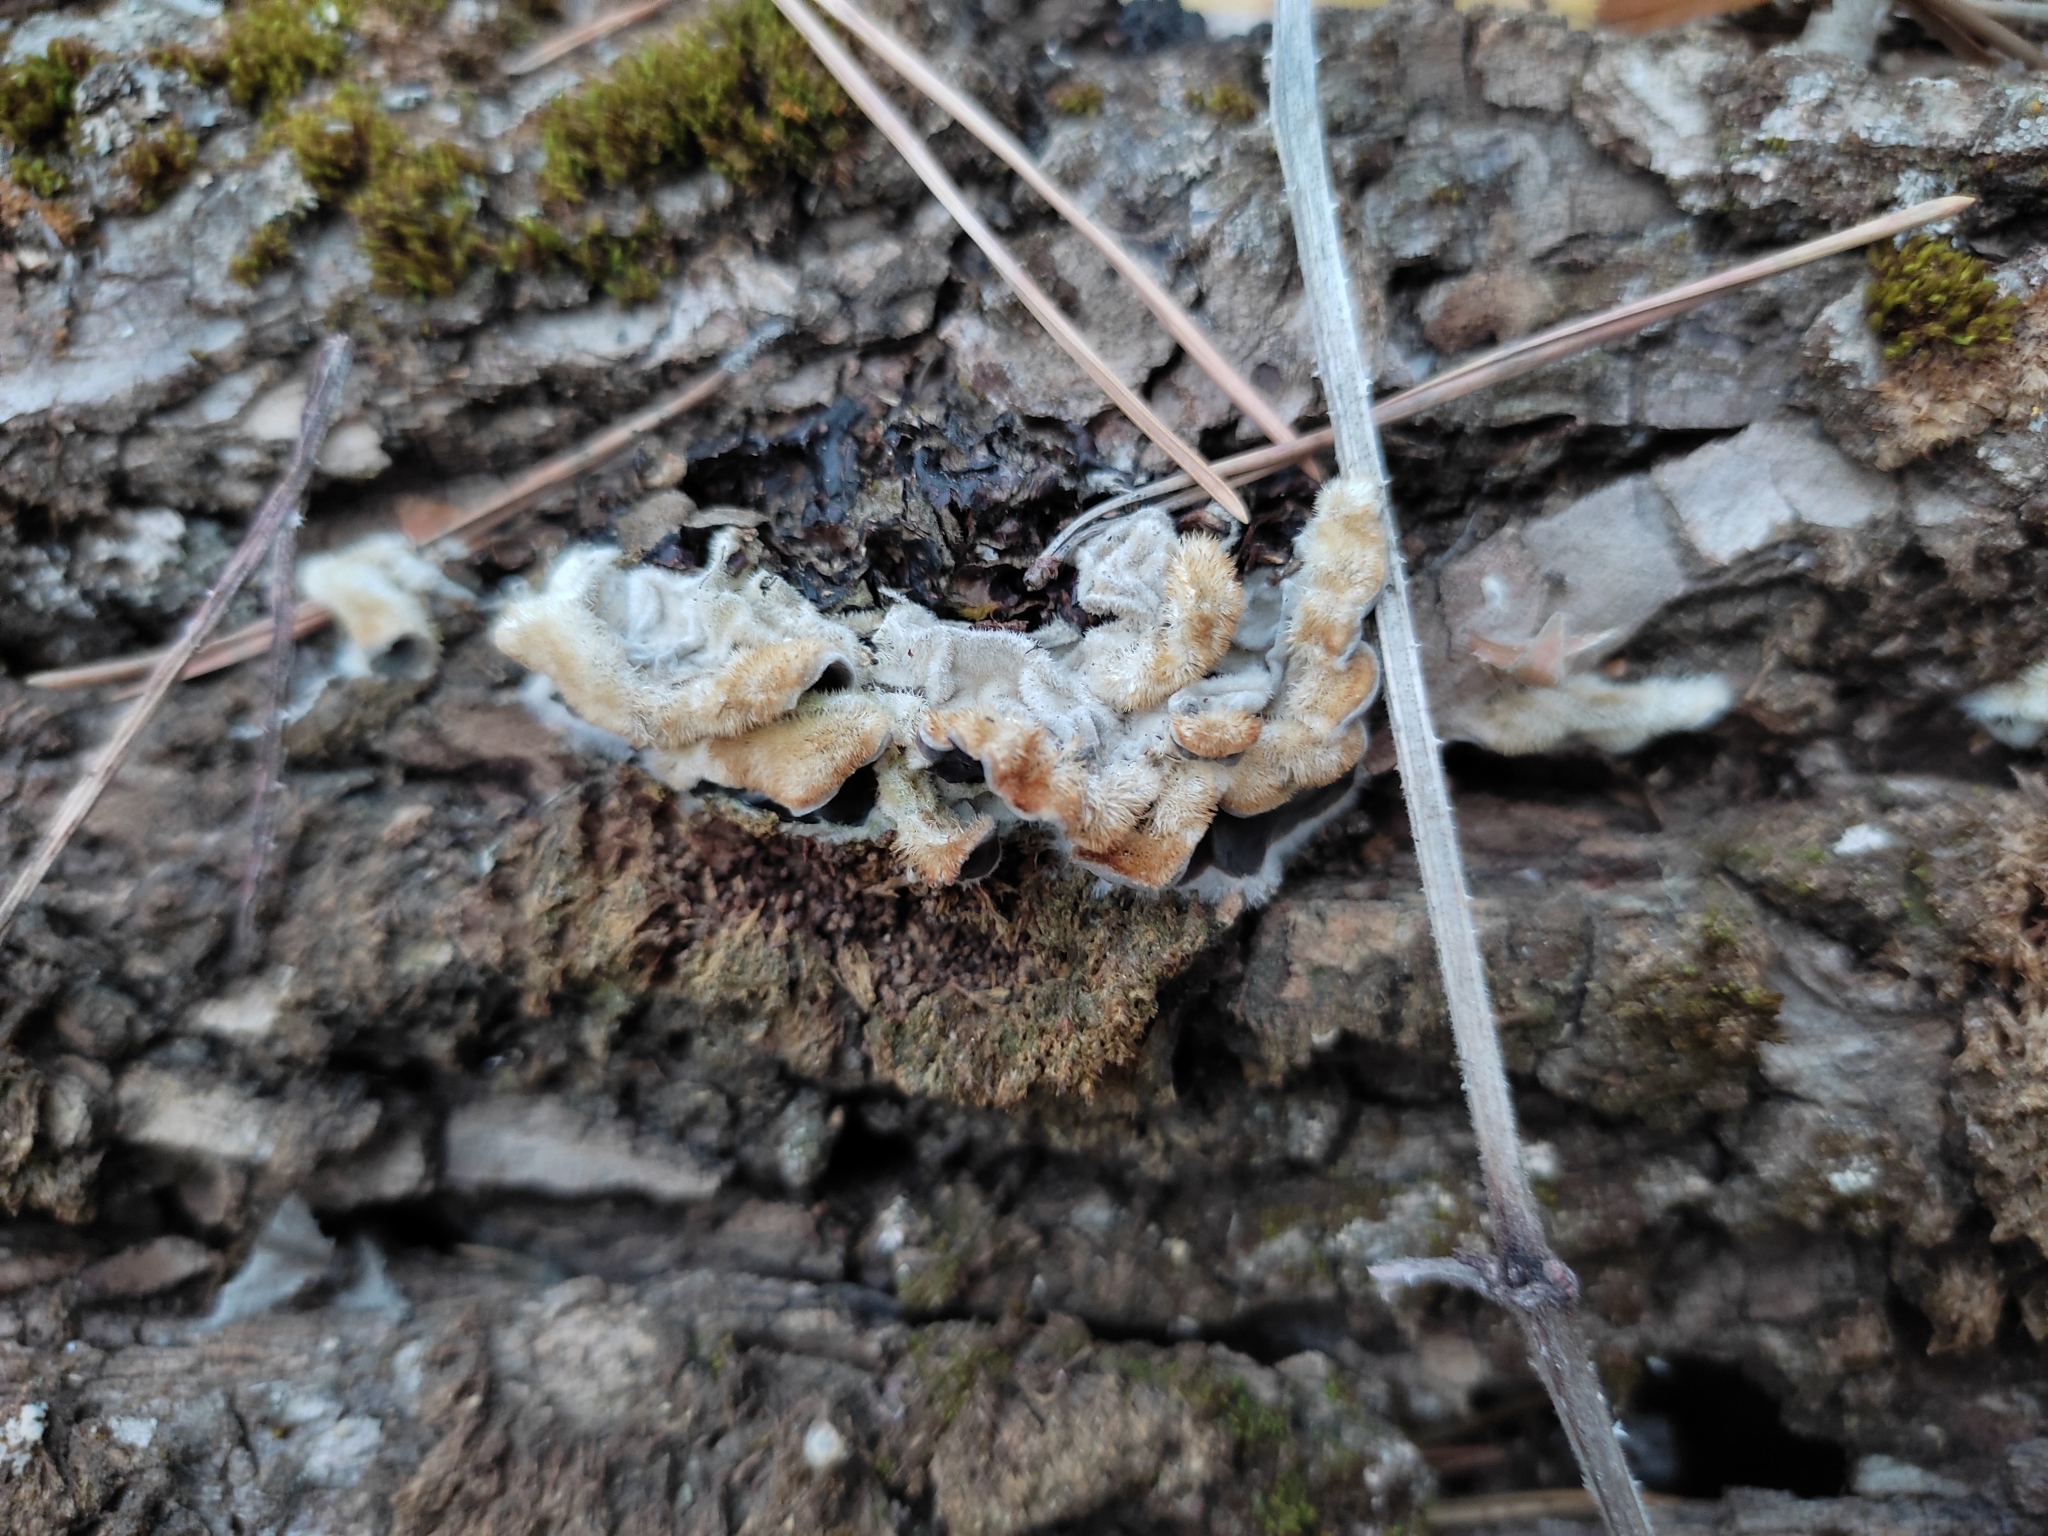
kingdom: Fungi
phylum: Basidiomycota
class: Agaricomycetes
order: Auriculariales
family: Auriculariaceae
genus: Auricularia
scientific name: Auricularia mesenterica
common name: Tripe fungus
